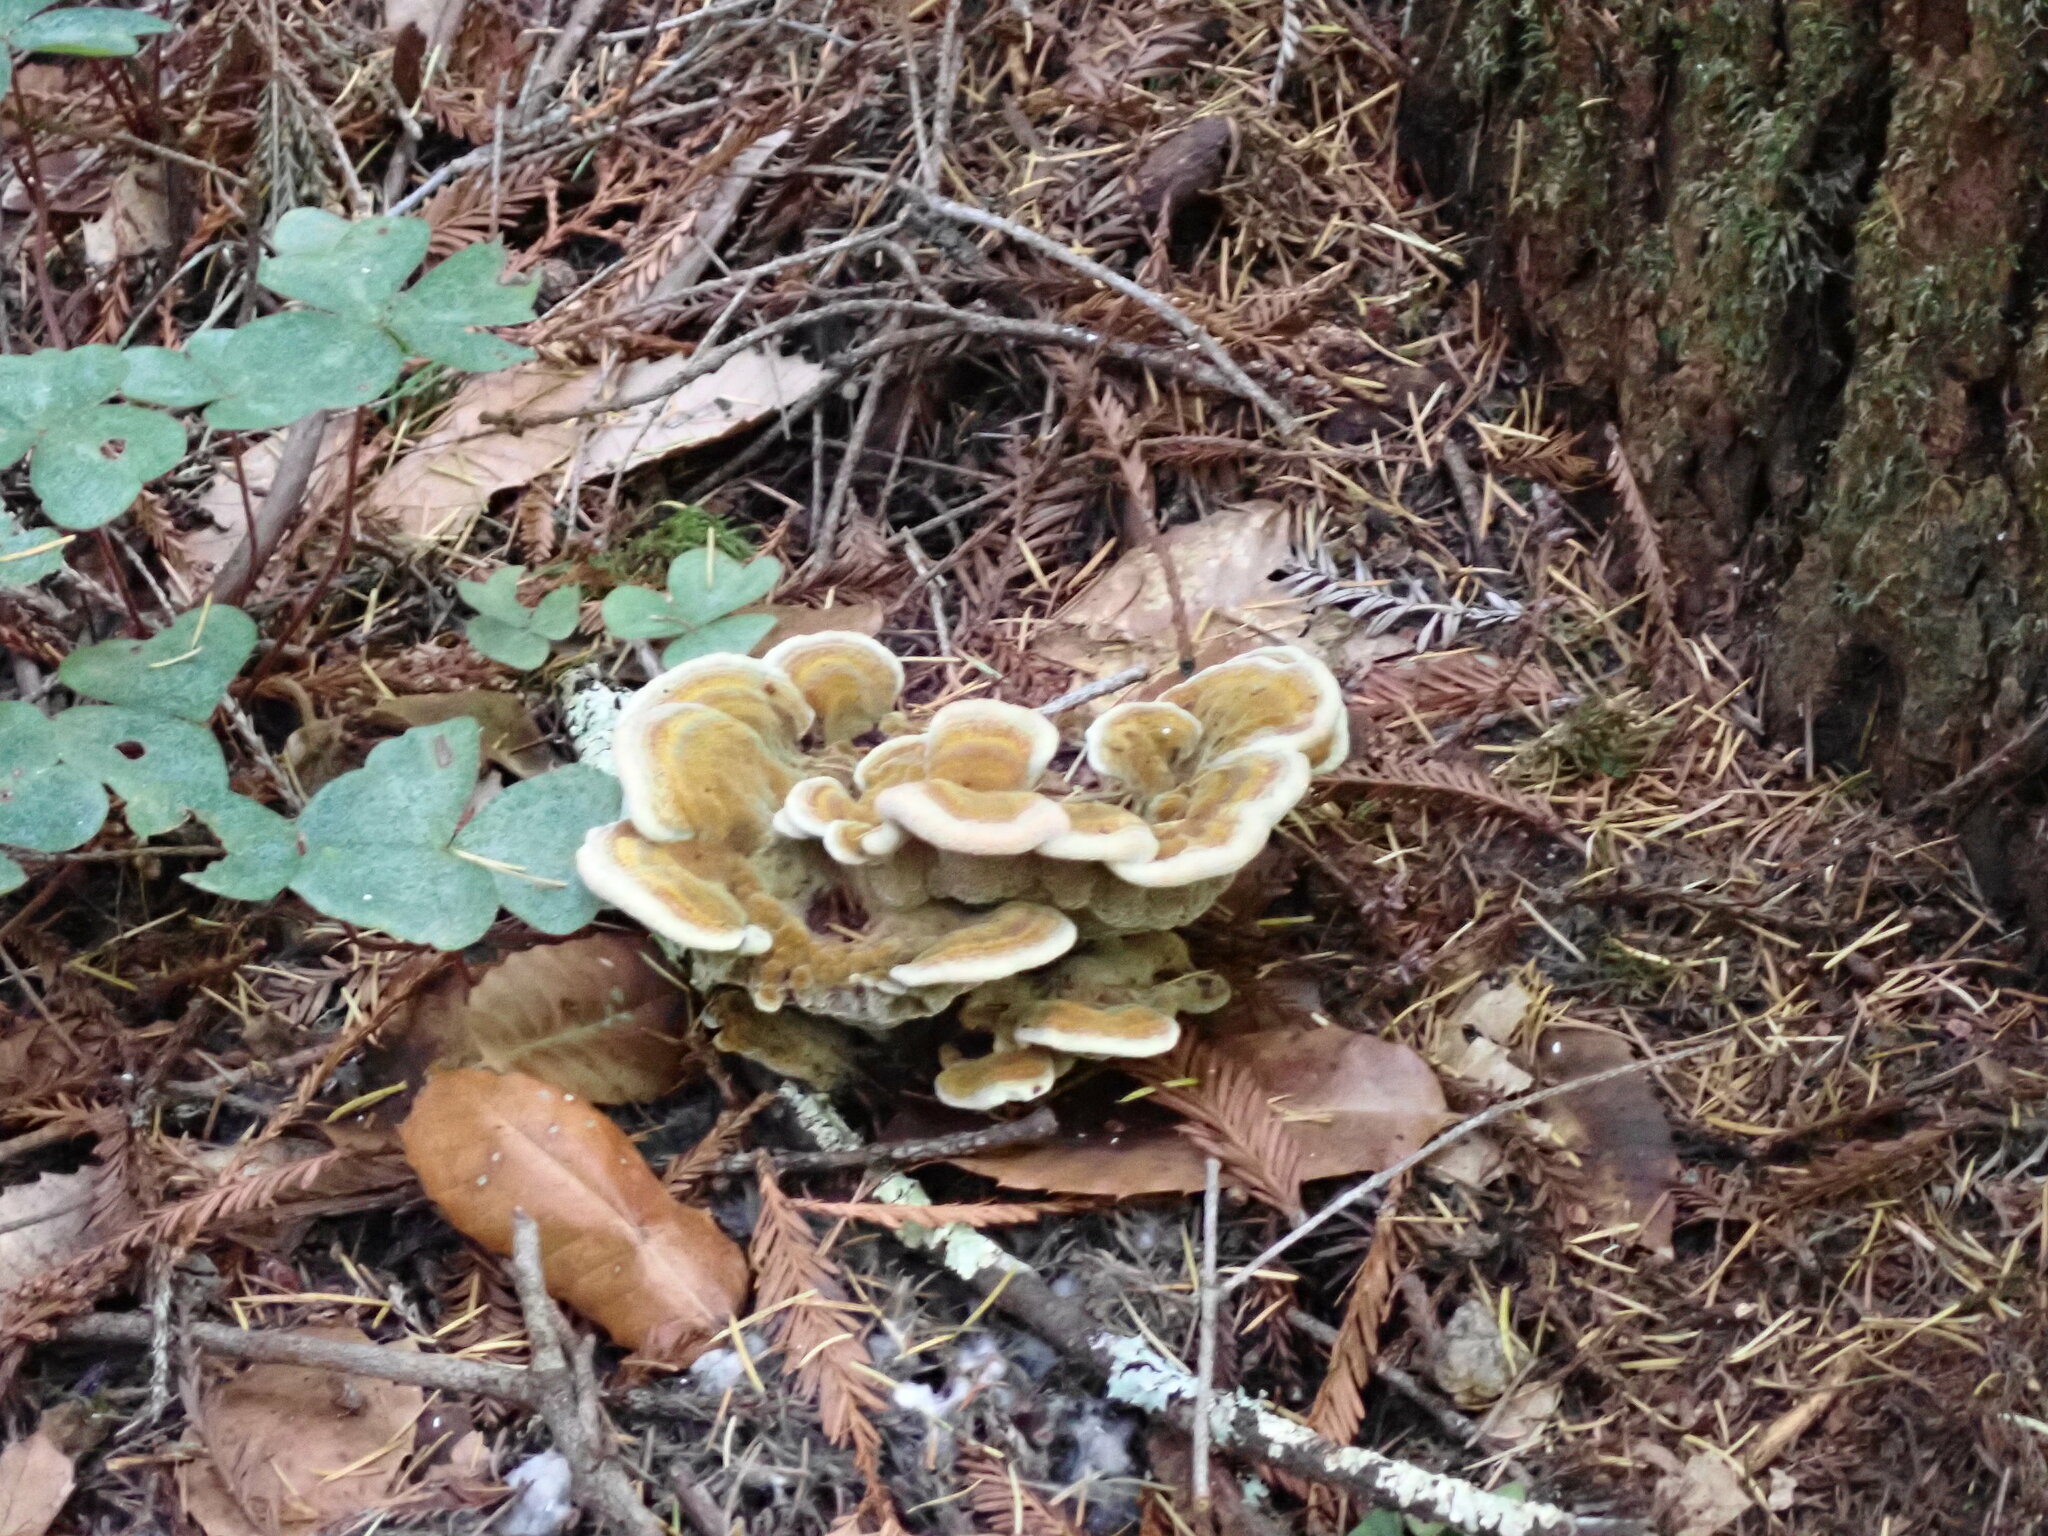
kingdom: Fungi
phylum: Basidiomycota
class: Agaricomycetes
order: Polyporales
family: Laetiporaceae
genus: Phaeolus
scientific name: Phaeolus schweinitzii
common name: Dyer's mazegill
